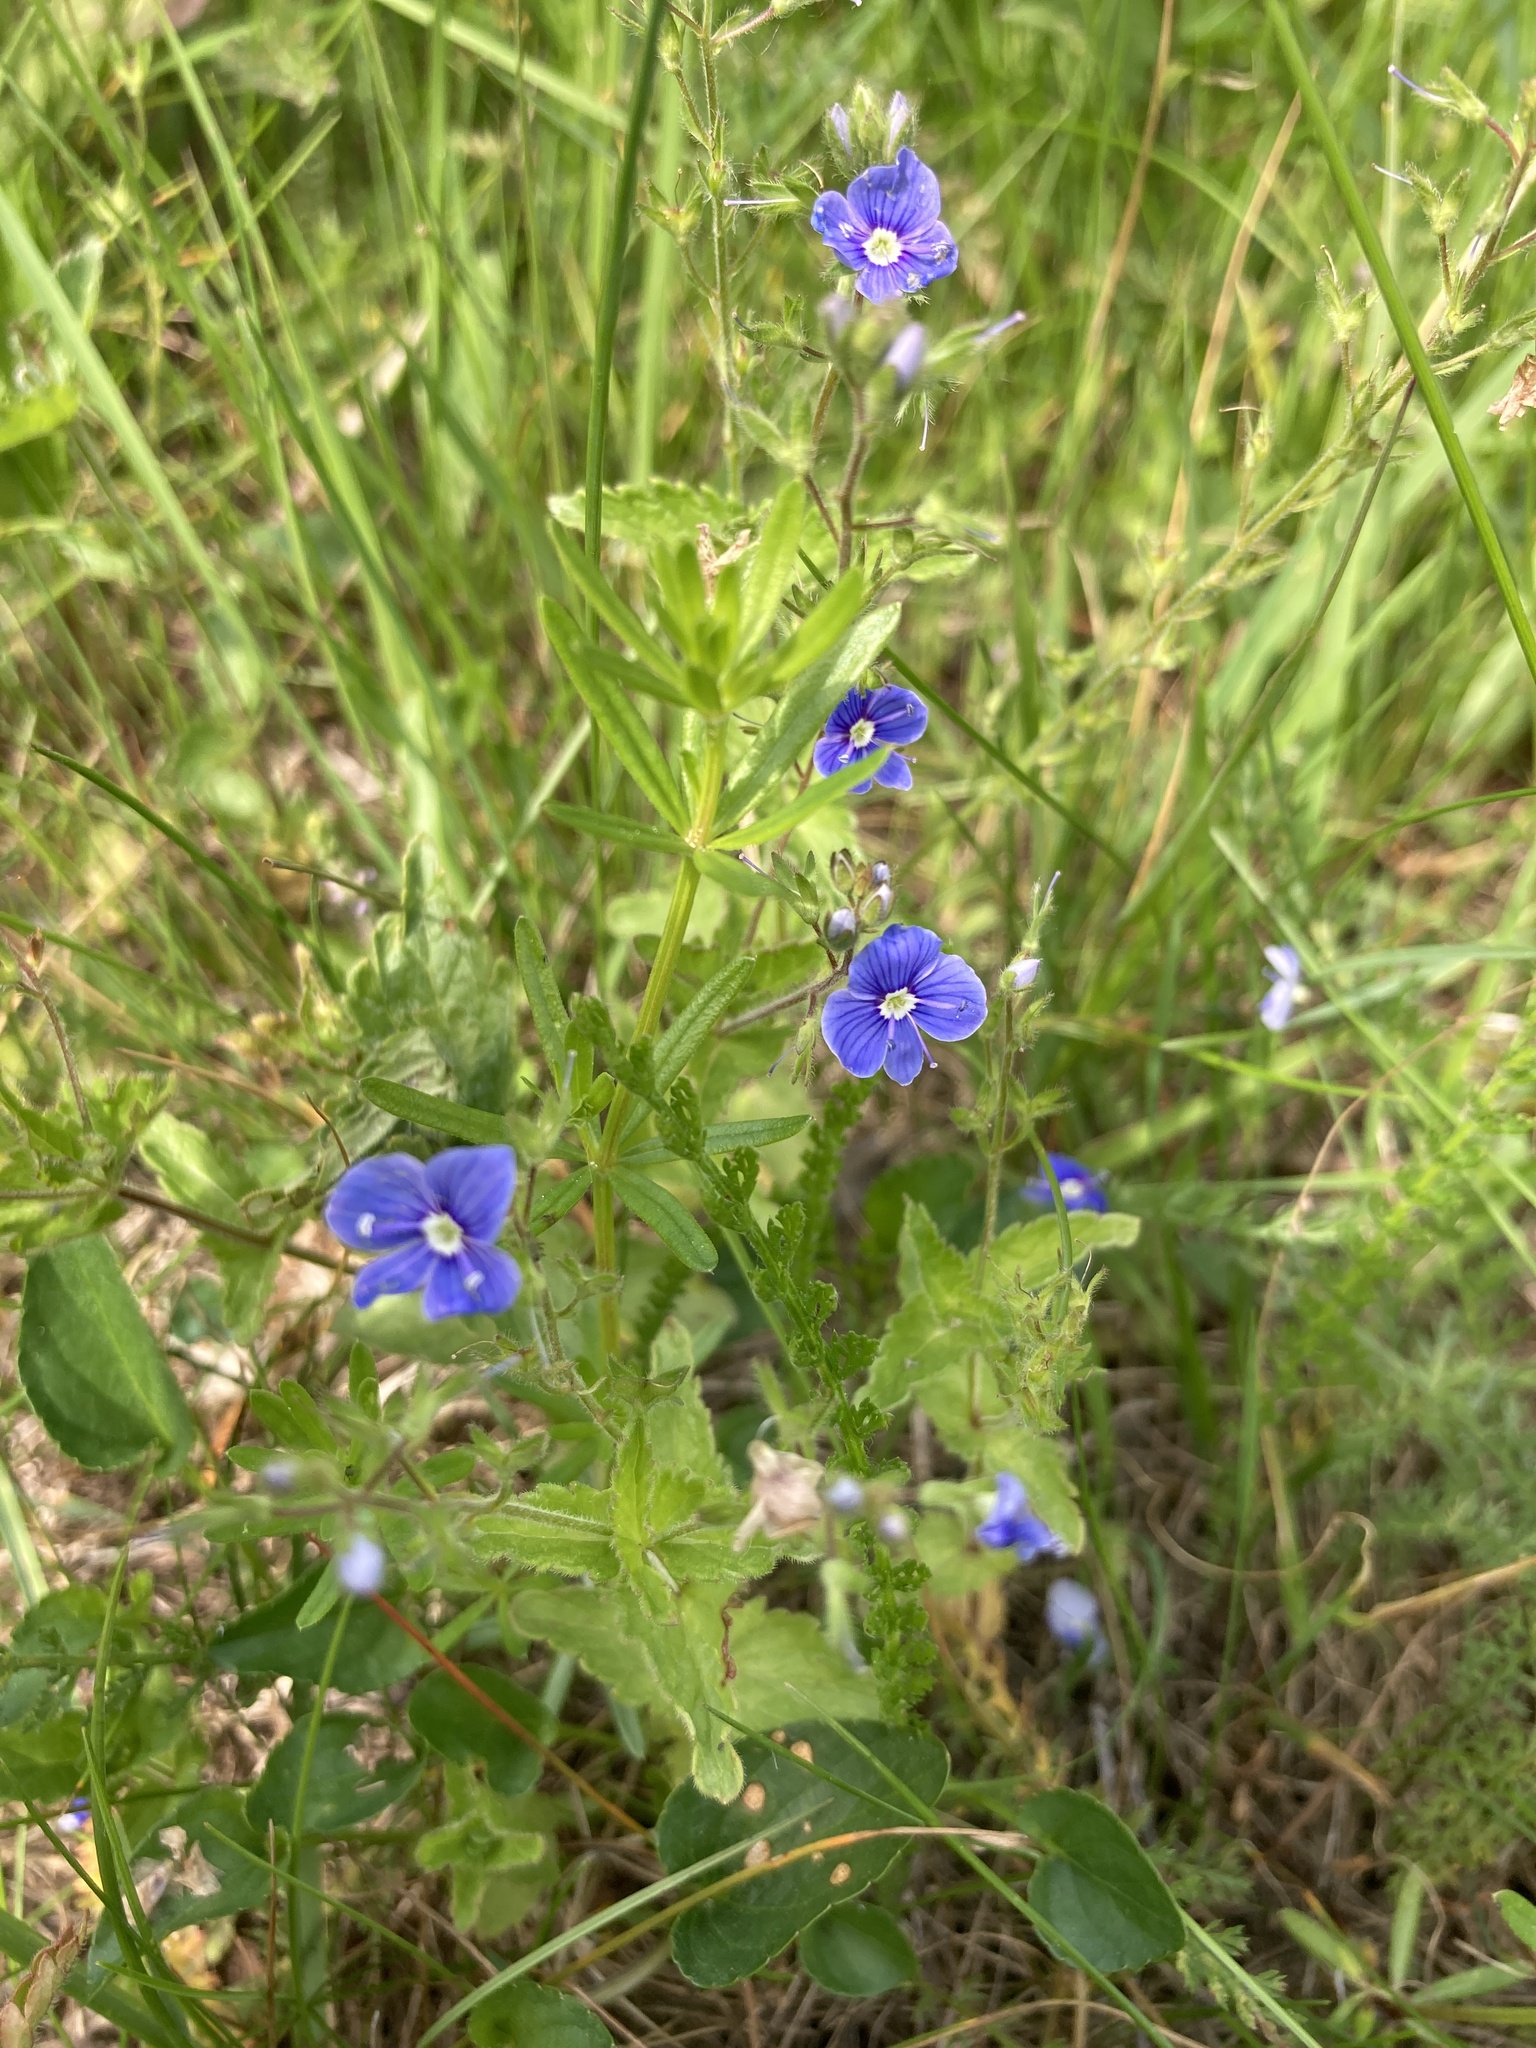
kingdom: Plantae
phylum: Tracheophyta
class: Magnoliopsida
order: Lamiales
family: Plantaginaceae
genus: Veronica
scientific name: Veronica chamaedrys
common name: Germander speedwell
